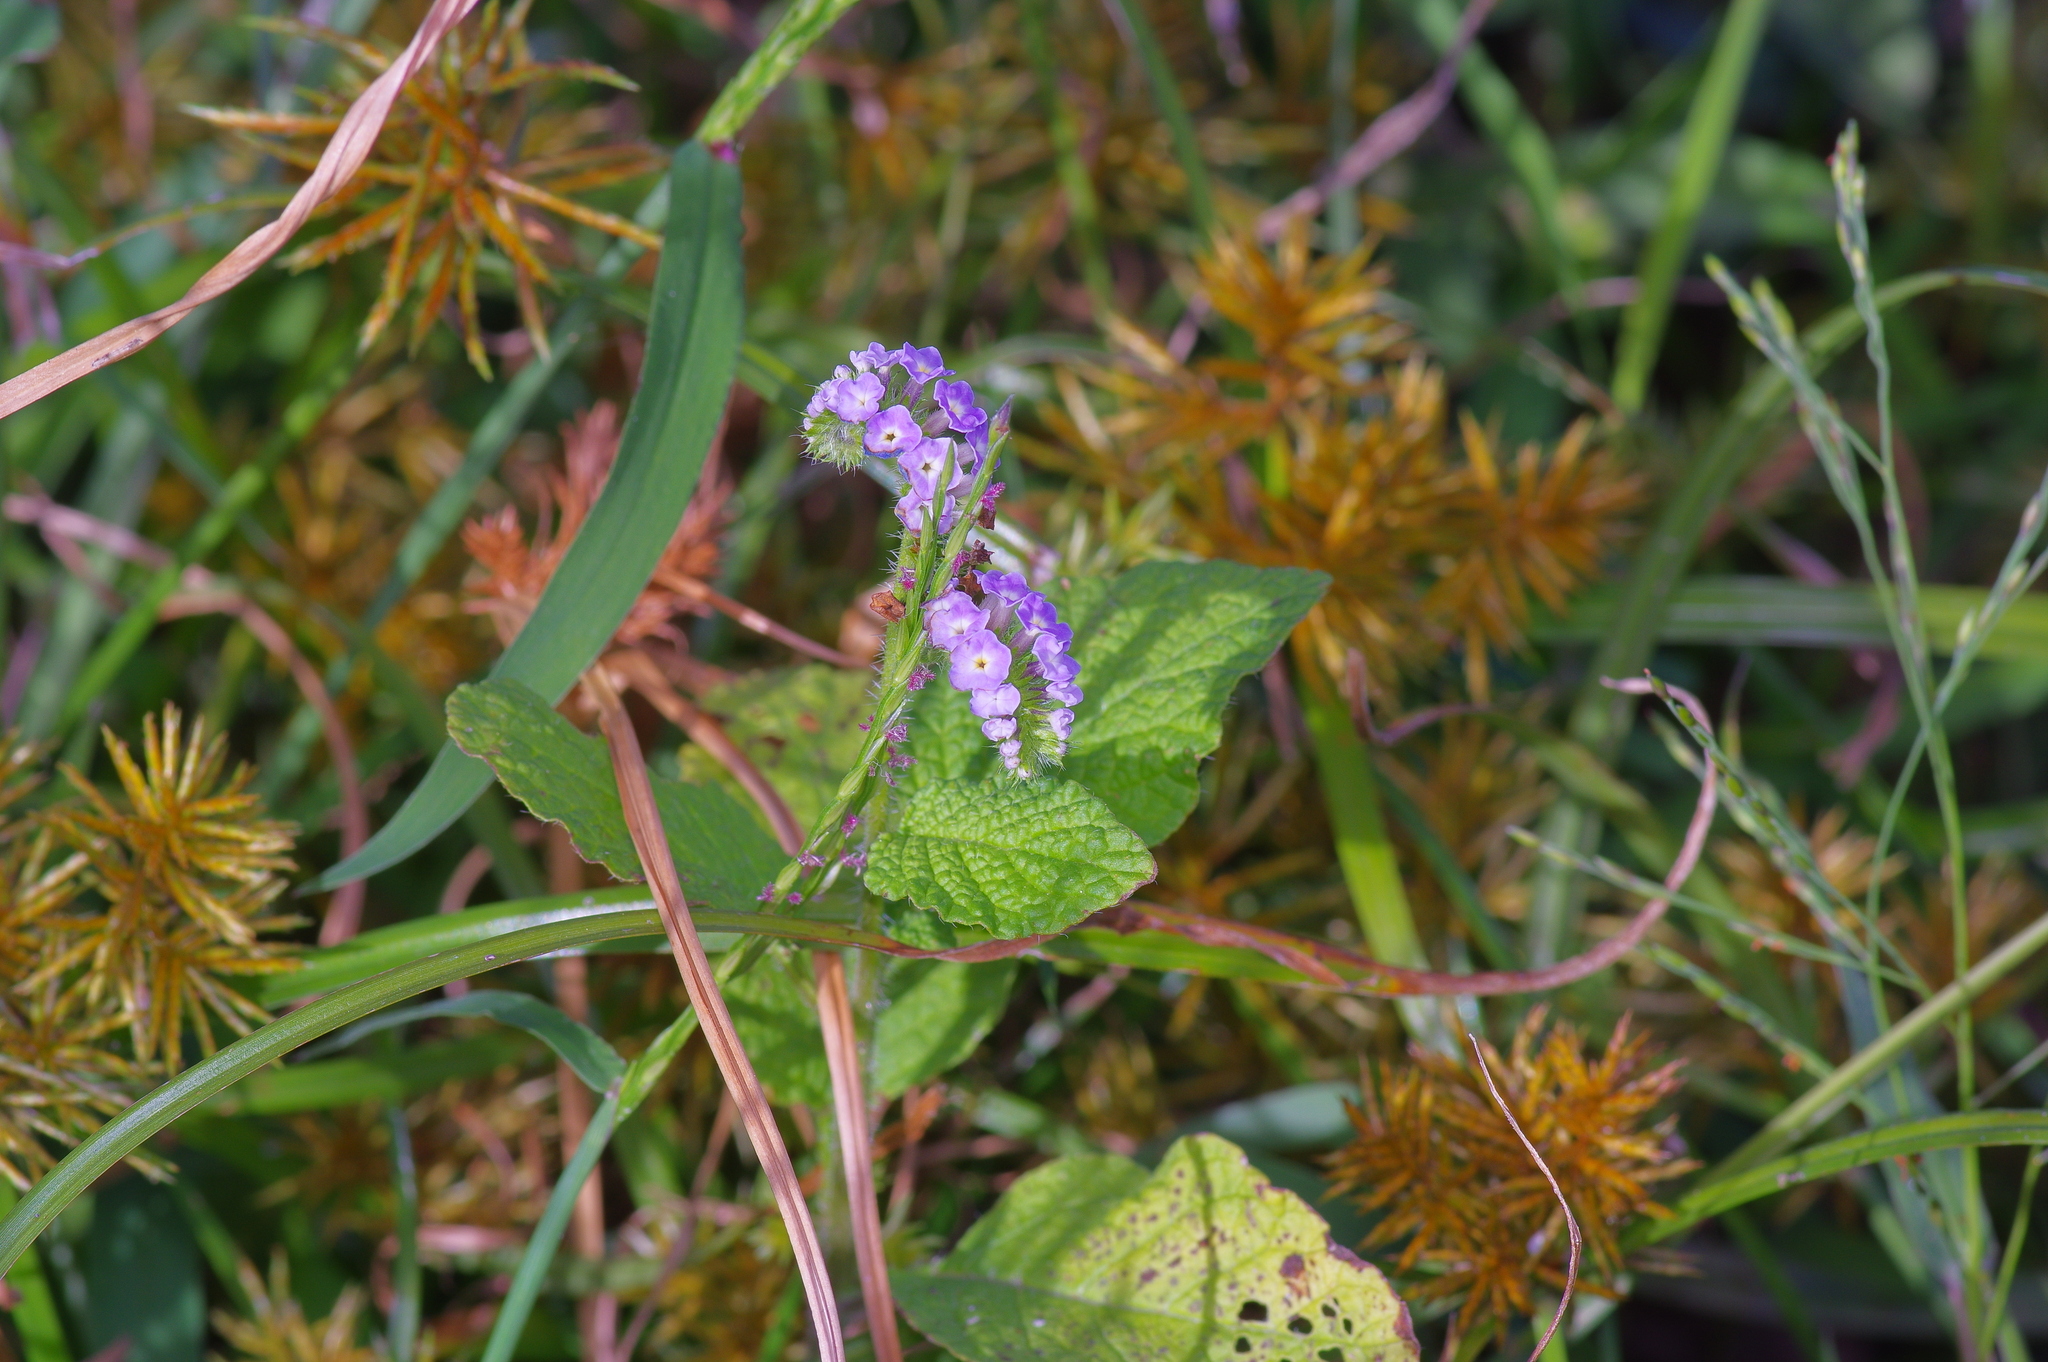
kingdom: Plantae
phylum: Tracheophyta
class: Magnoliopsida
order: Boraginales
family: Heliotropiaceae
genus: Heliotropium
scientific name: Heliotropium indicum
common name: Indian heliotrope
